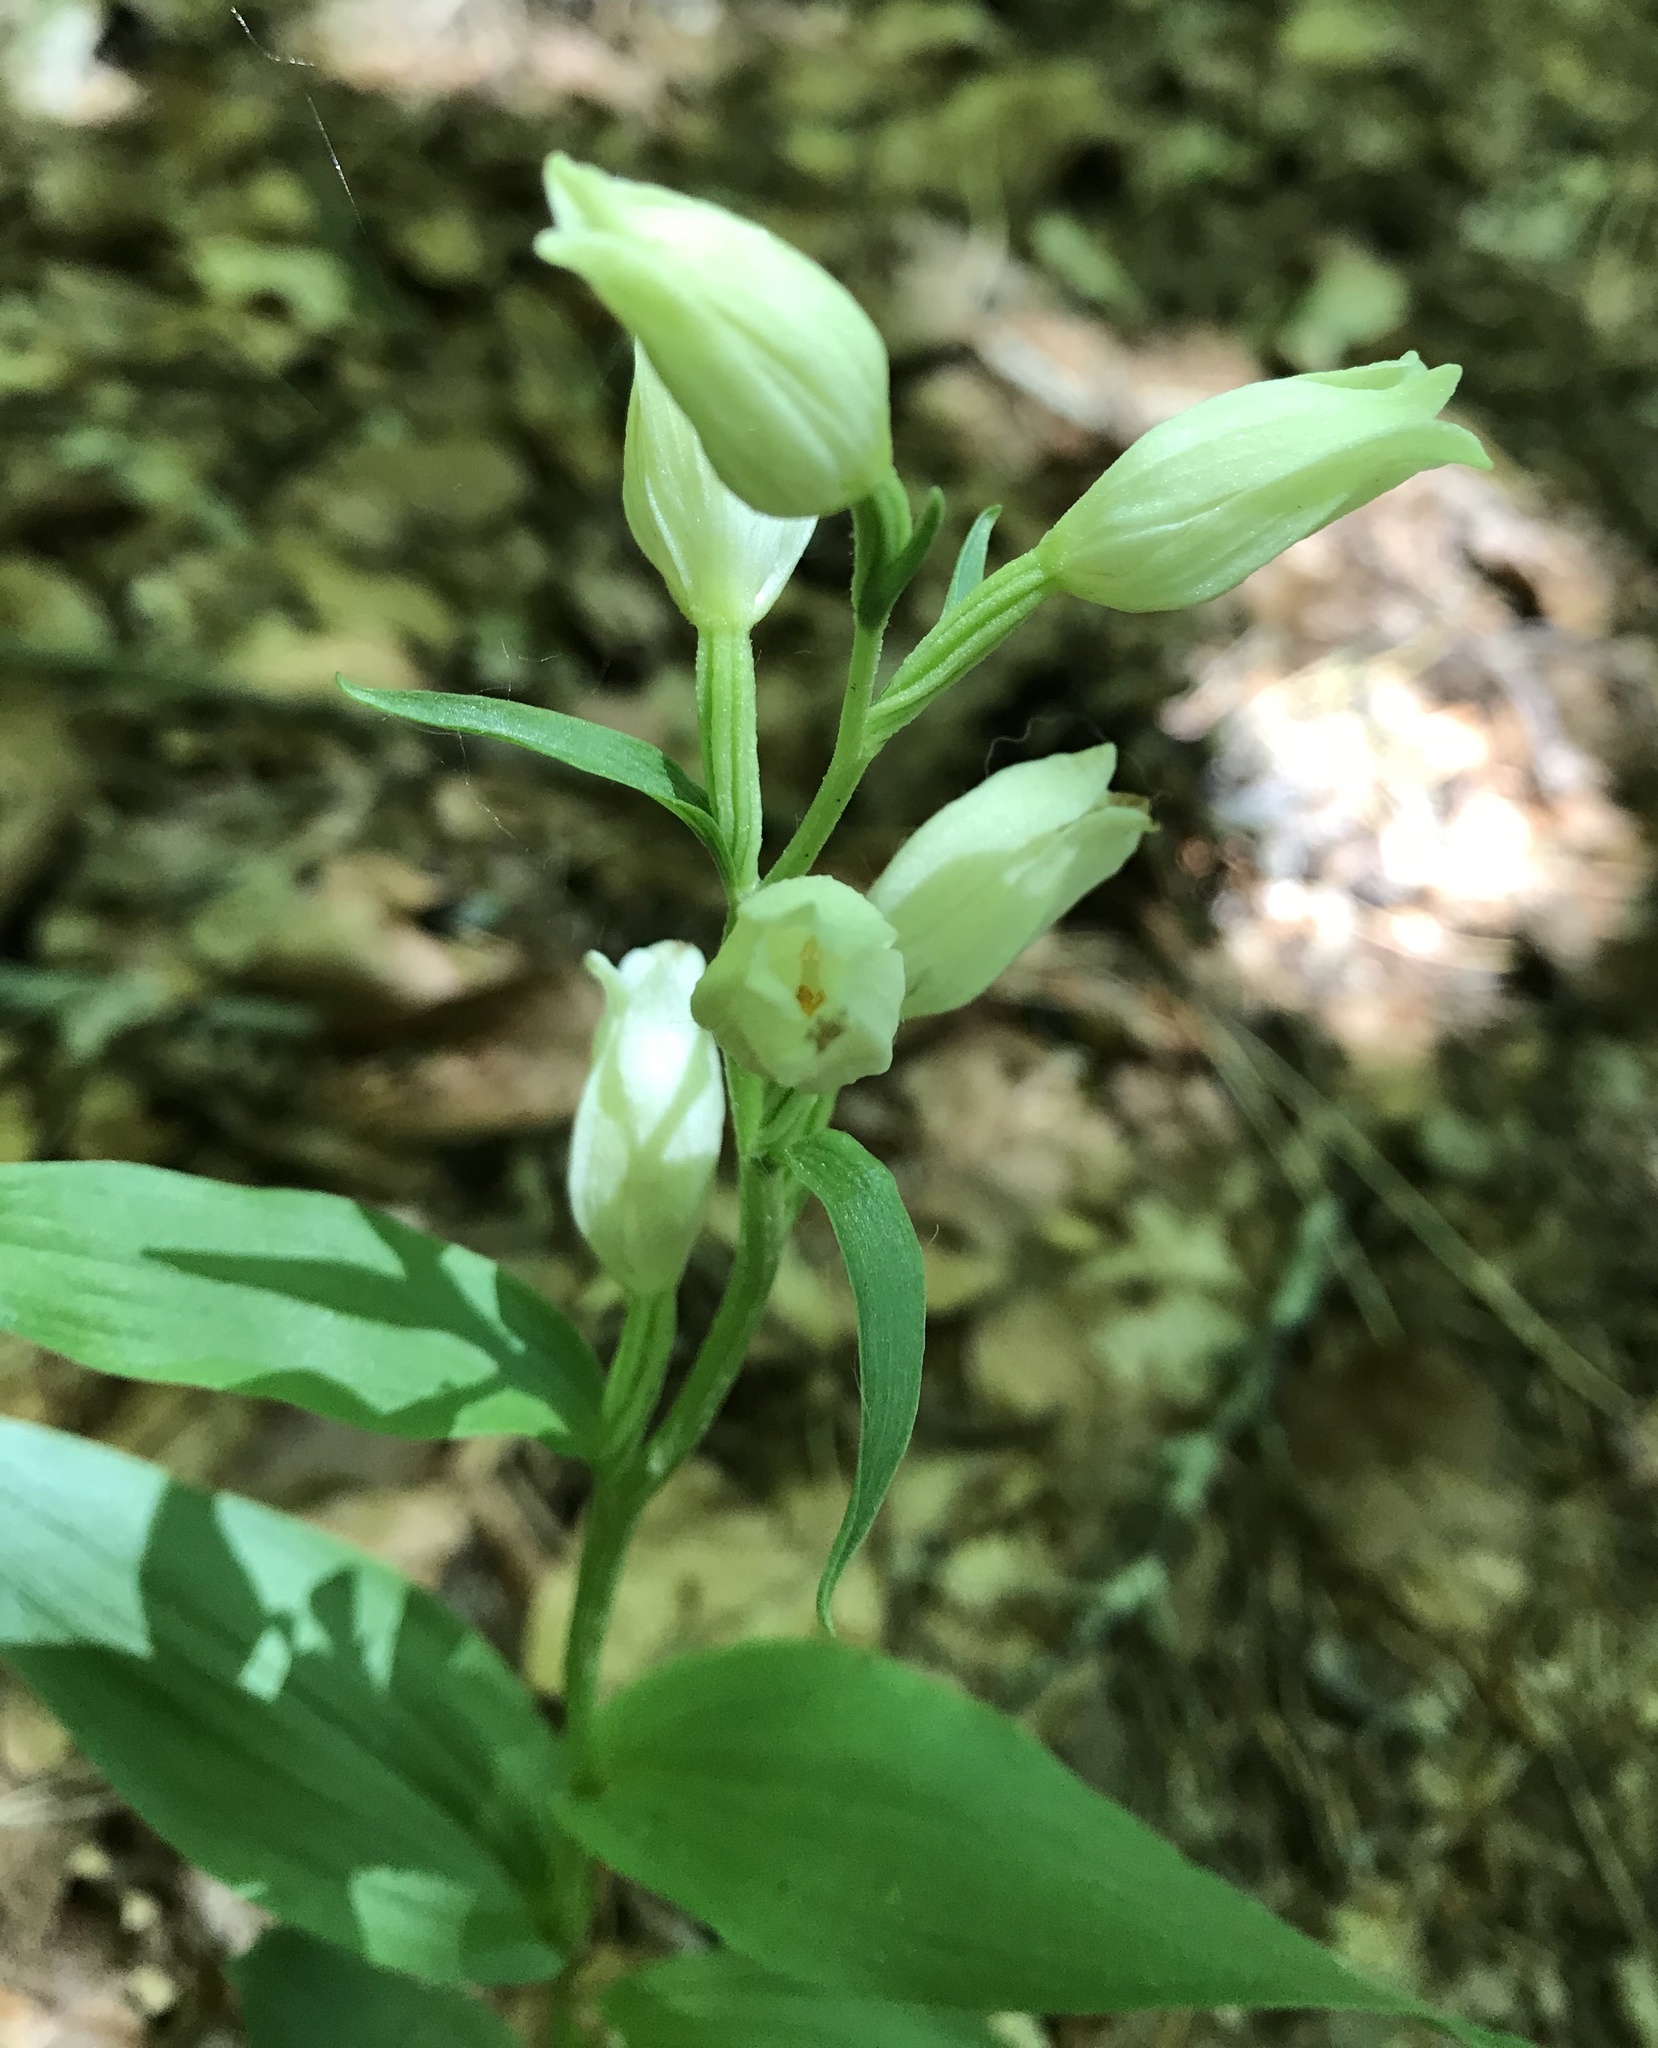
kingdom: Plantae
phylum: Tracheophyta
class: Liliopsida
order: Asparagales
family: Orchidaceae
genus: Cephalanthera
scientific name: Cephalanthera damasonium
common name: White helleborine
